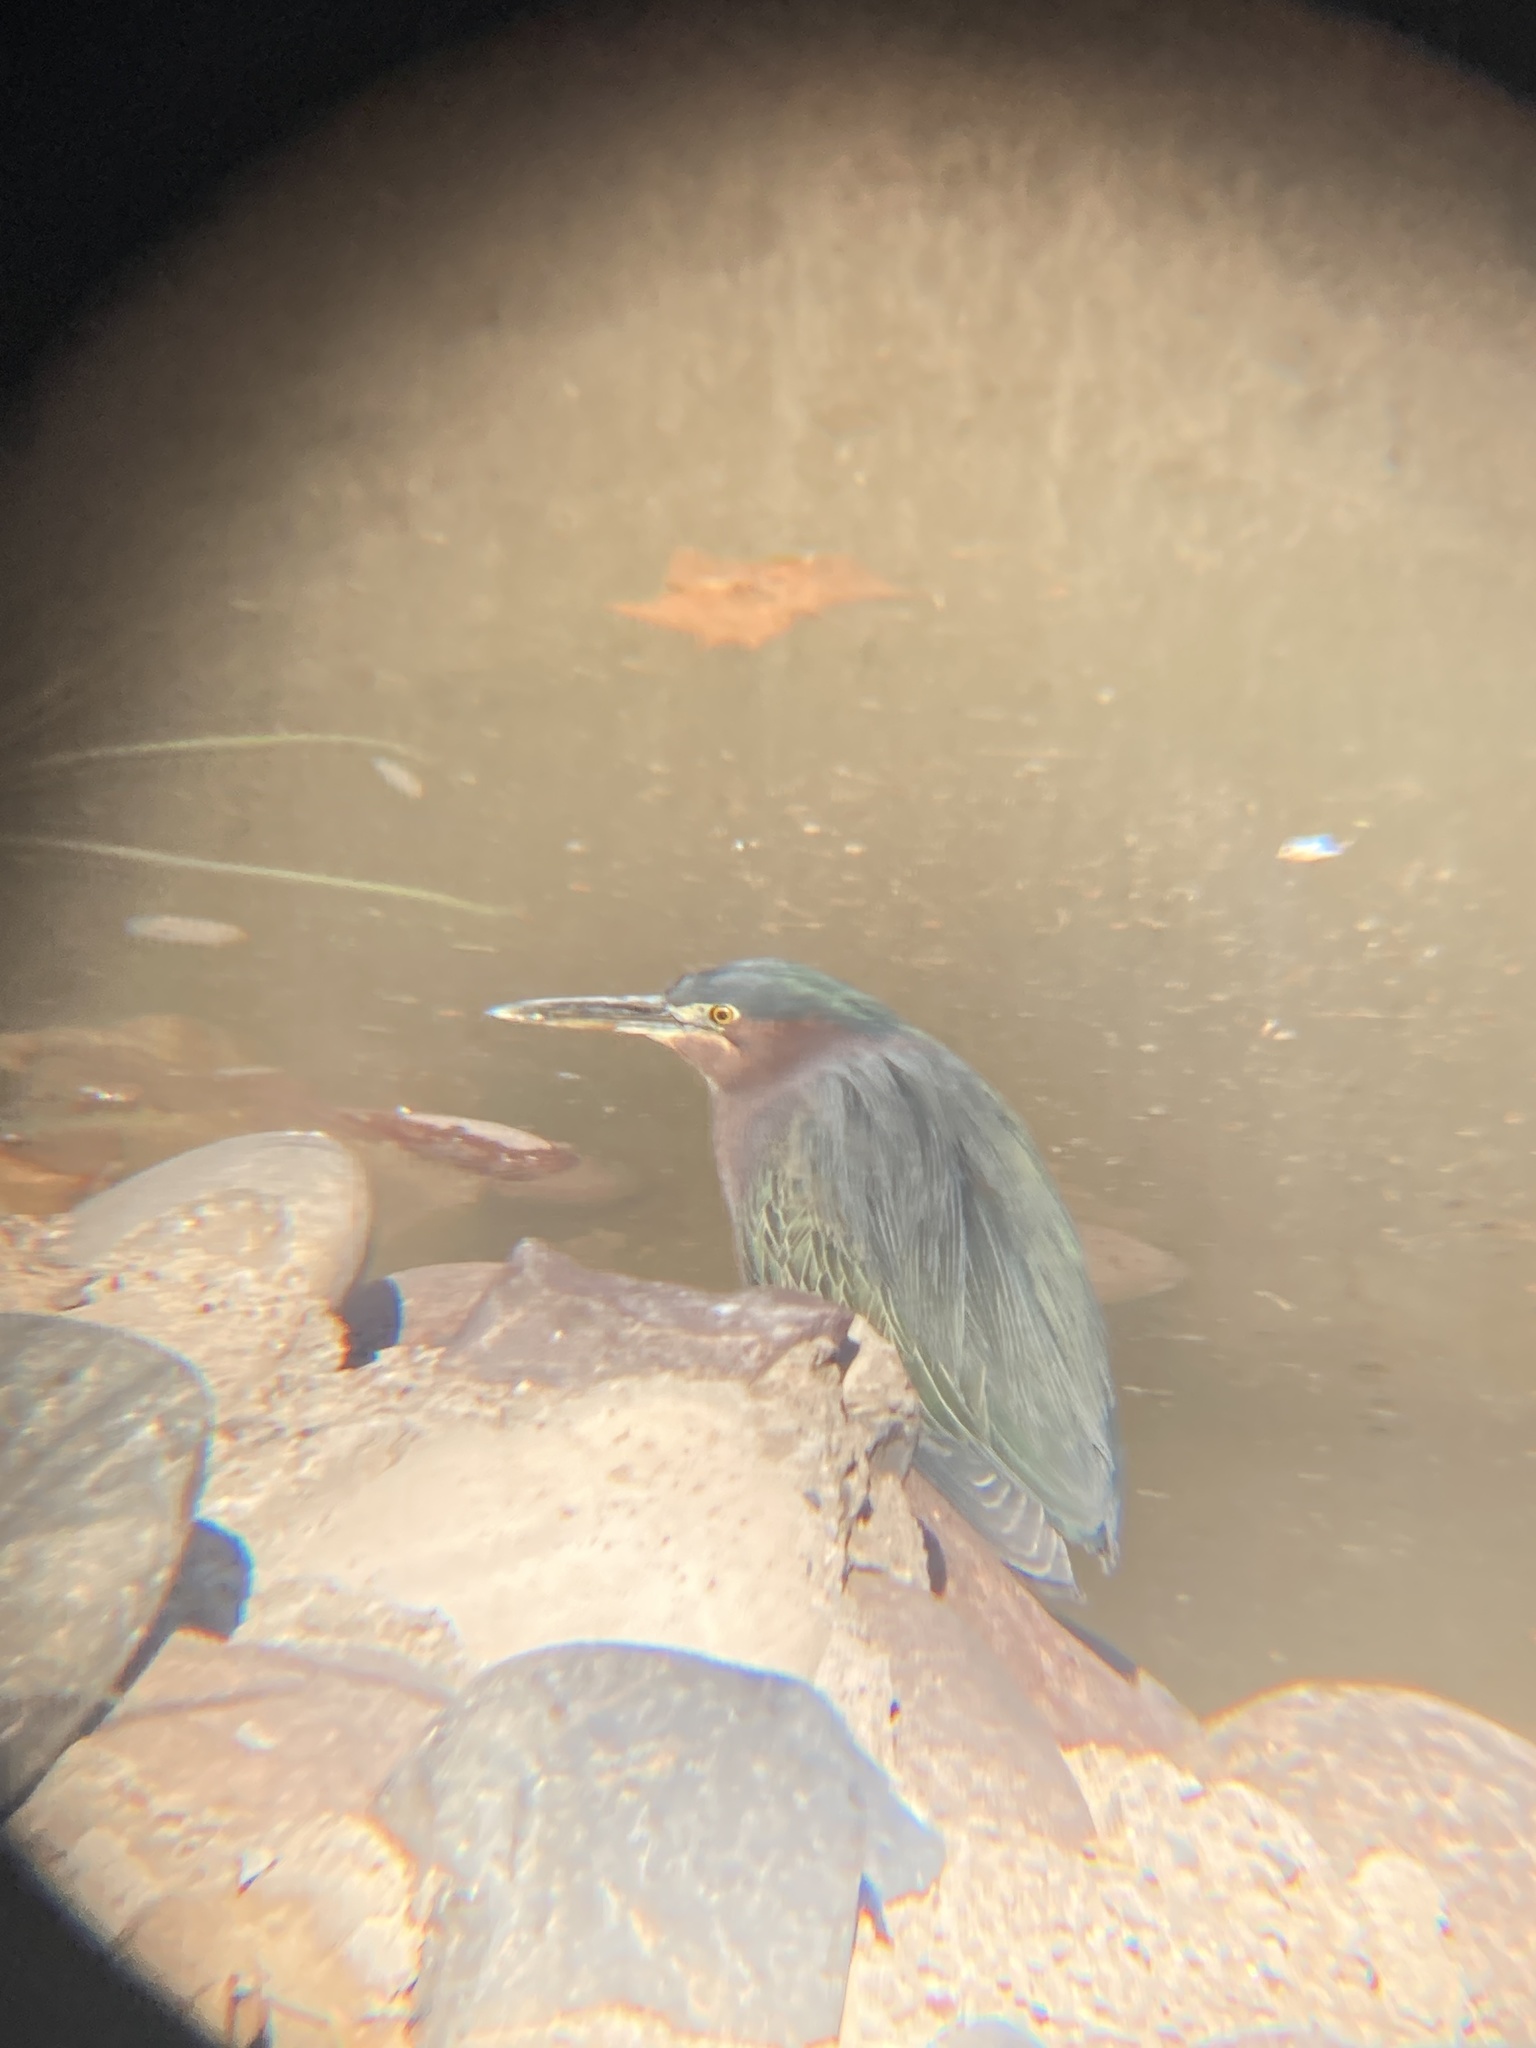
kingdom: Animalia
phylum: Chordata
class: Aves
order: Pelecaniformes
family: Ardeidae
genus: Butorides
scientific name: Butorides virescens
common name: Green heron
